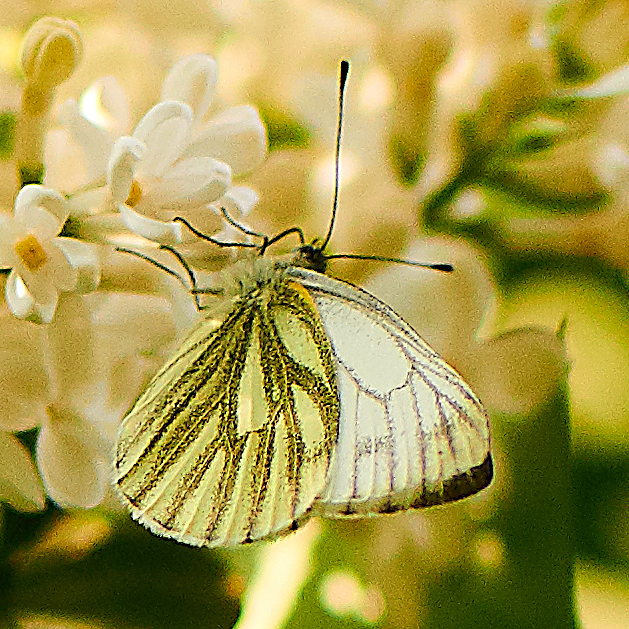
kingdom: Animalia
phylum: Arthropoda
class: Insecta
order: Lepidoptera
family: Pieridae
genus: Pieris
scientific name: Pieris napi
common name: Green-veined white
